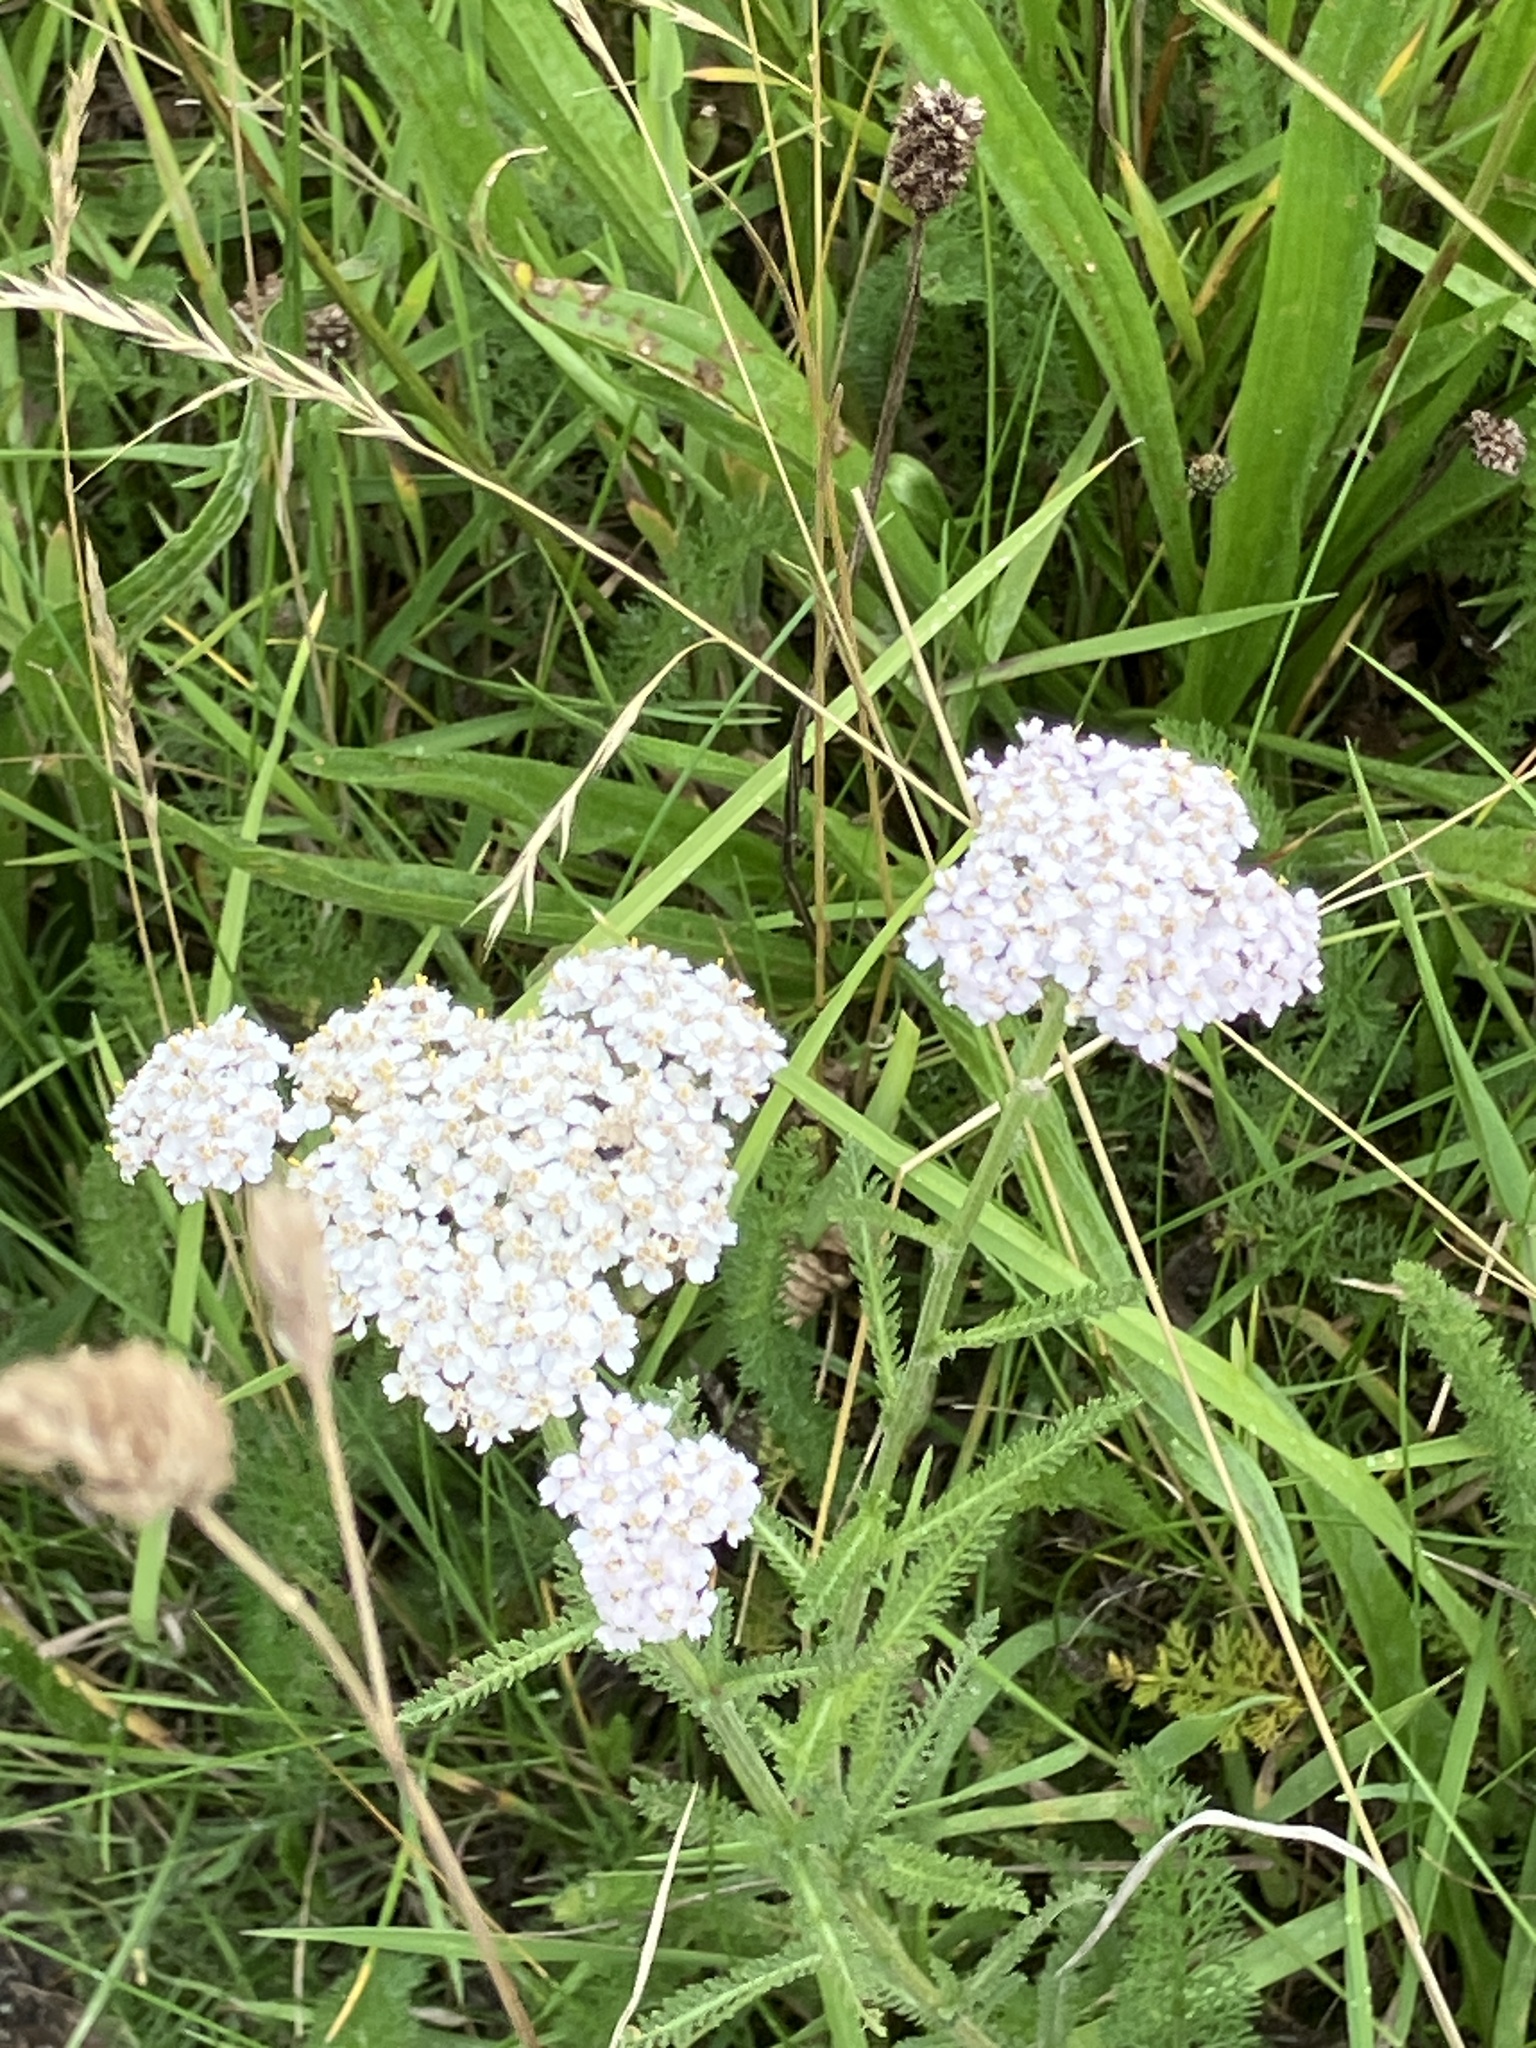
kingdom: Plantae
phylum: Tracheophyta
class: Magnoliopsida
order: Asterales
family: Asteraceae
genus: Achillea
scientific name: Achillea millefolium
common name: Yarrow
